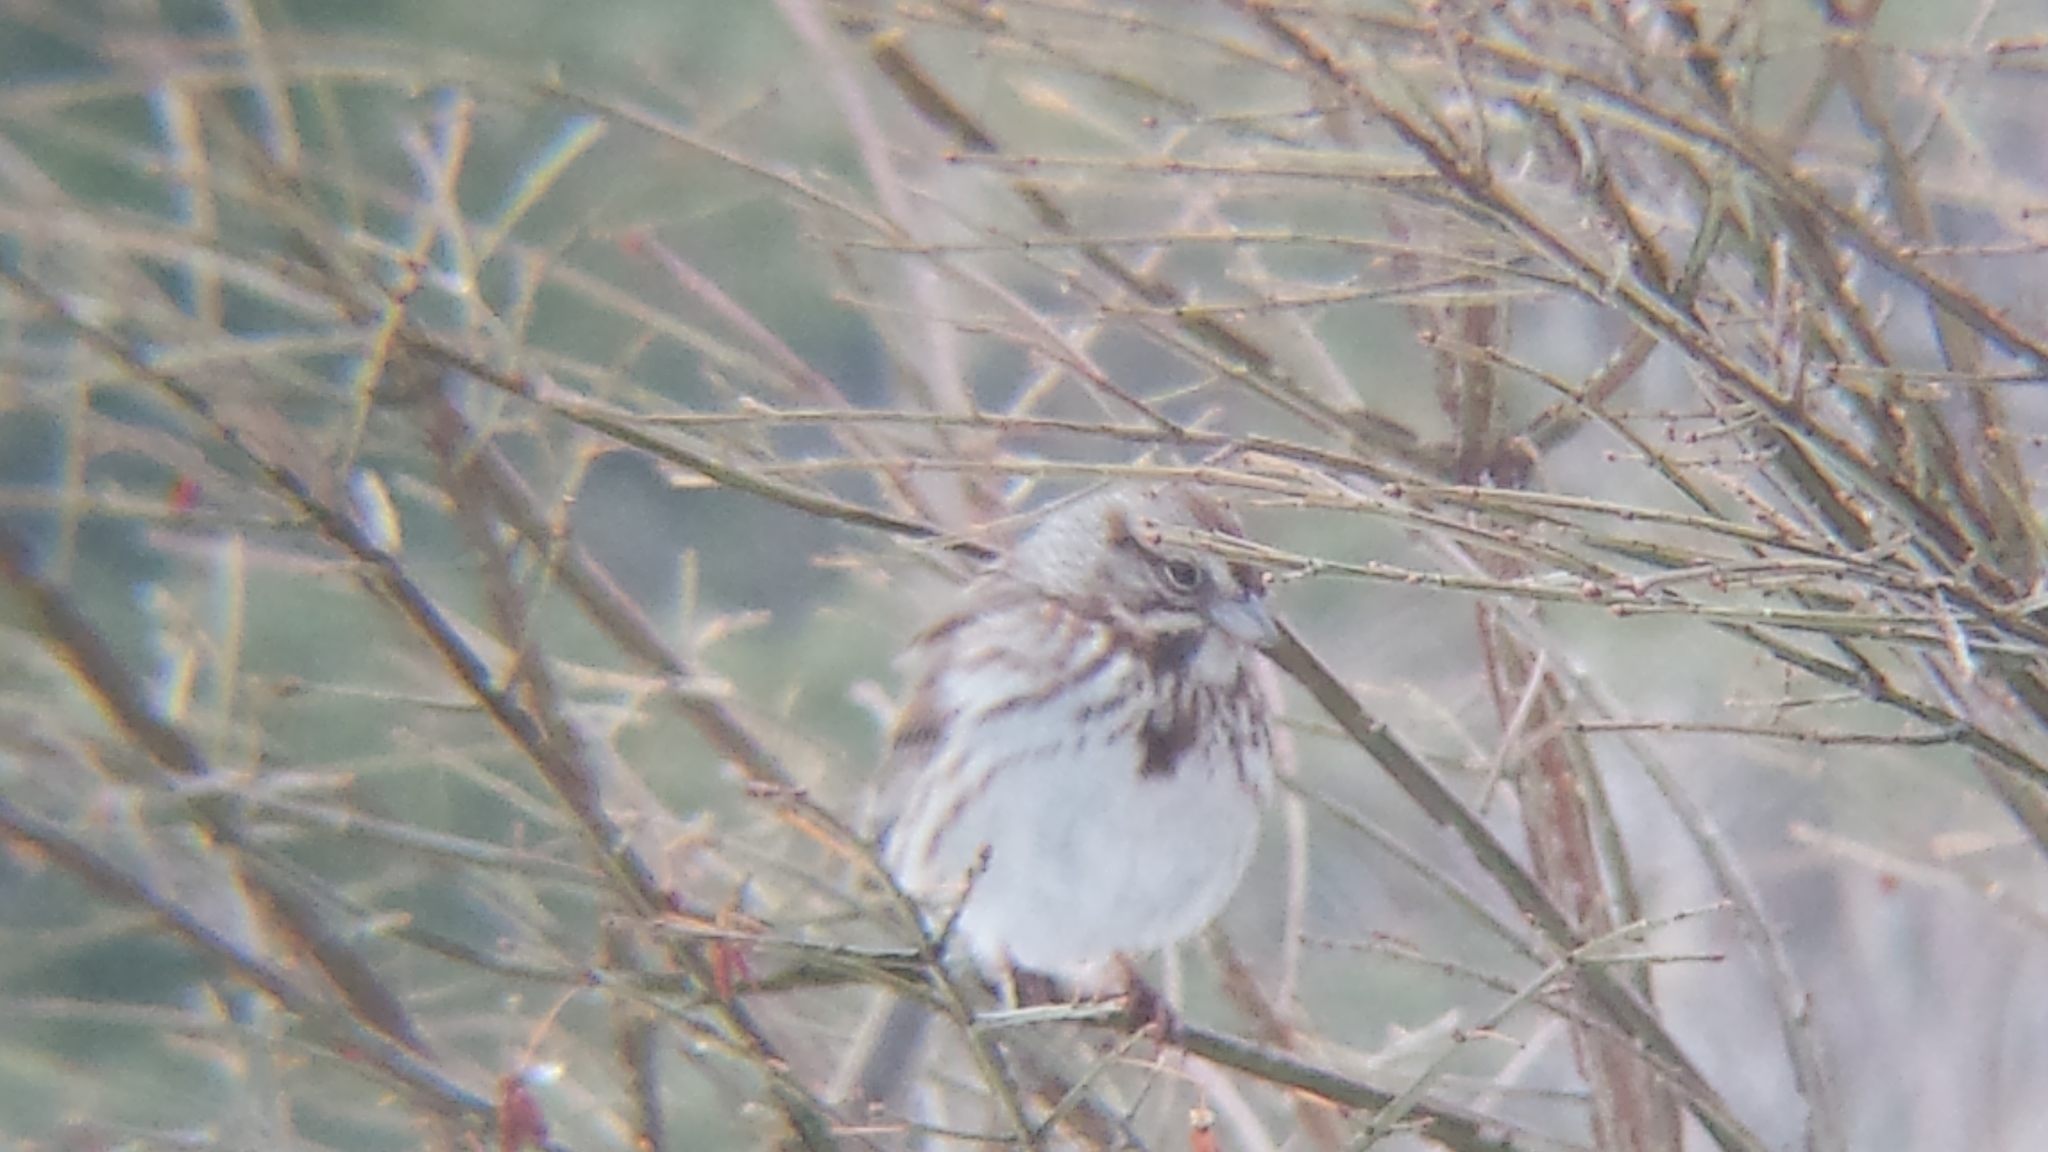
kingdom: Animalia
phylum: Chordata
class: Aves
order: Passeriformes
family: Passerellidae
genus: Melospiza
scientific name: Melospiza melodia
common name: Song sparrow
